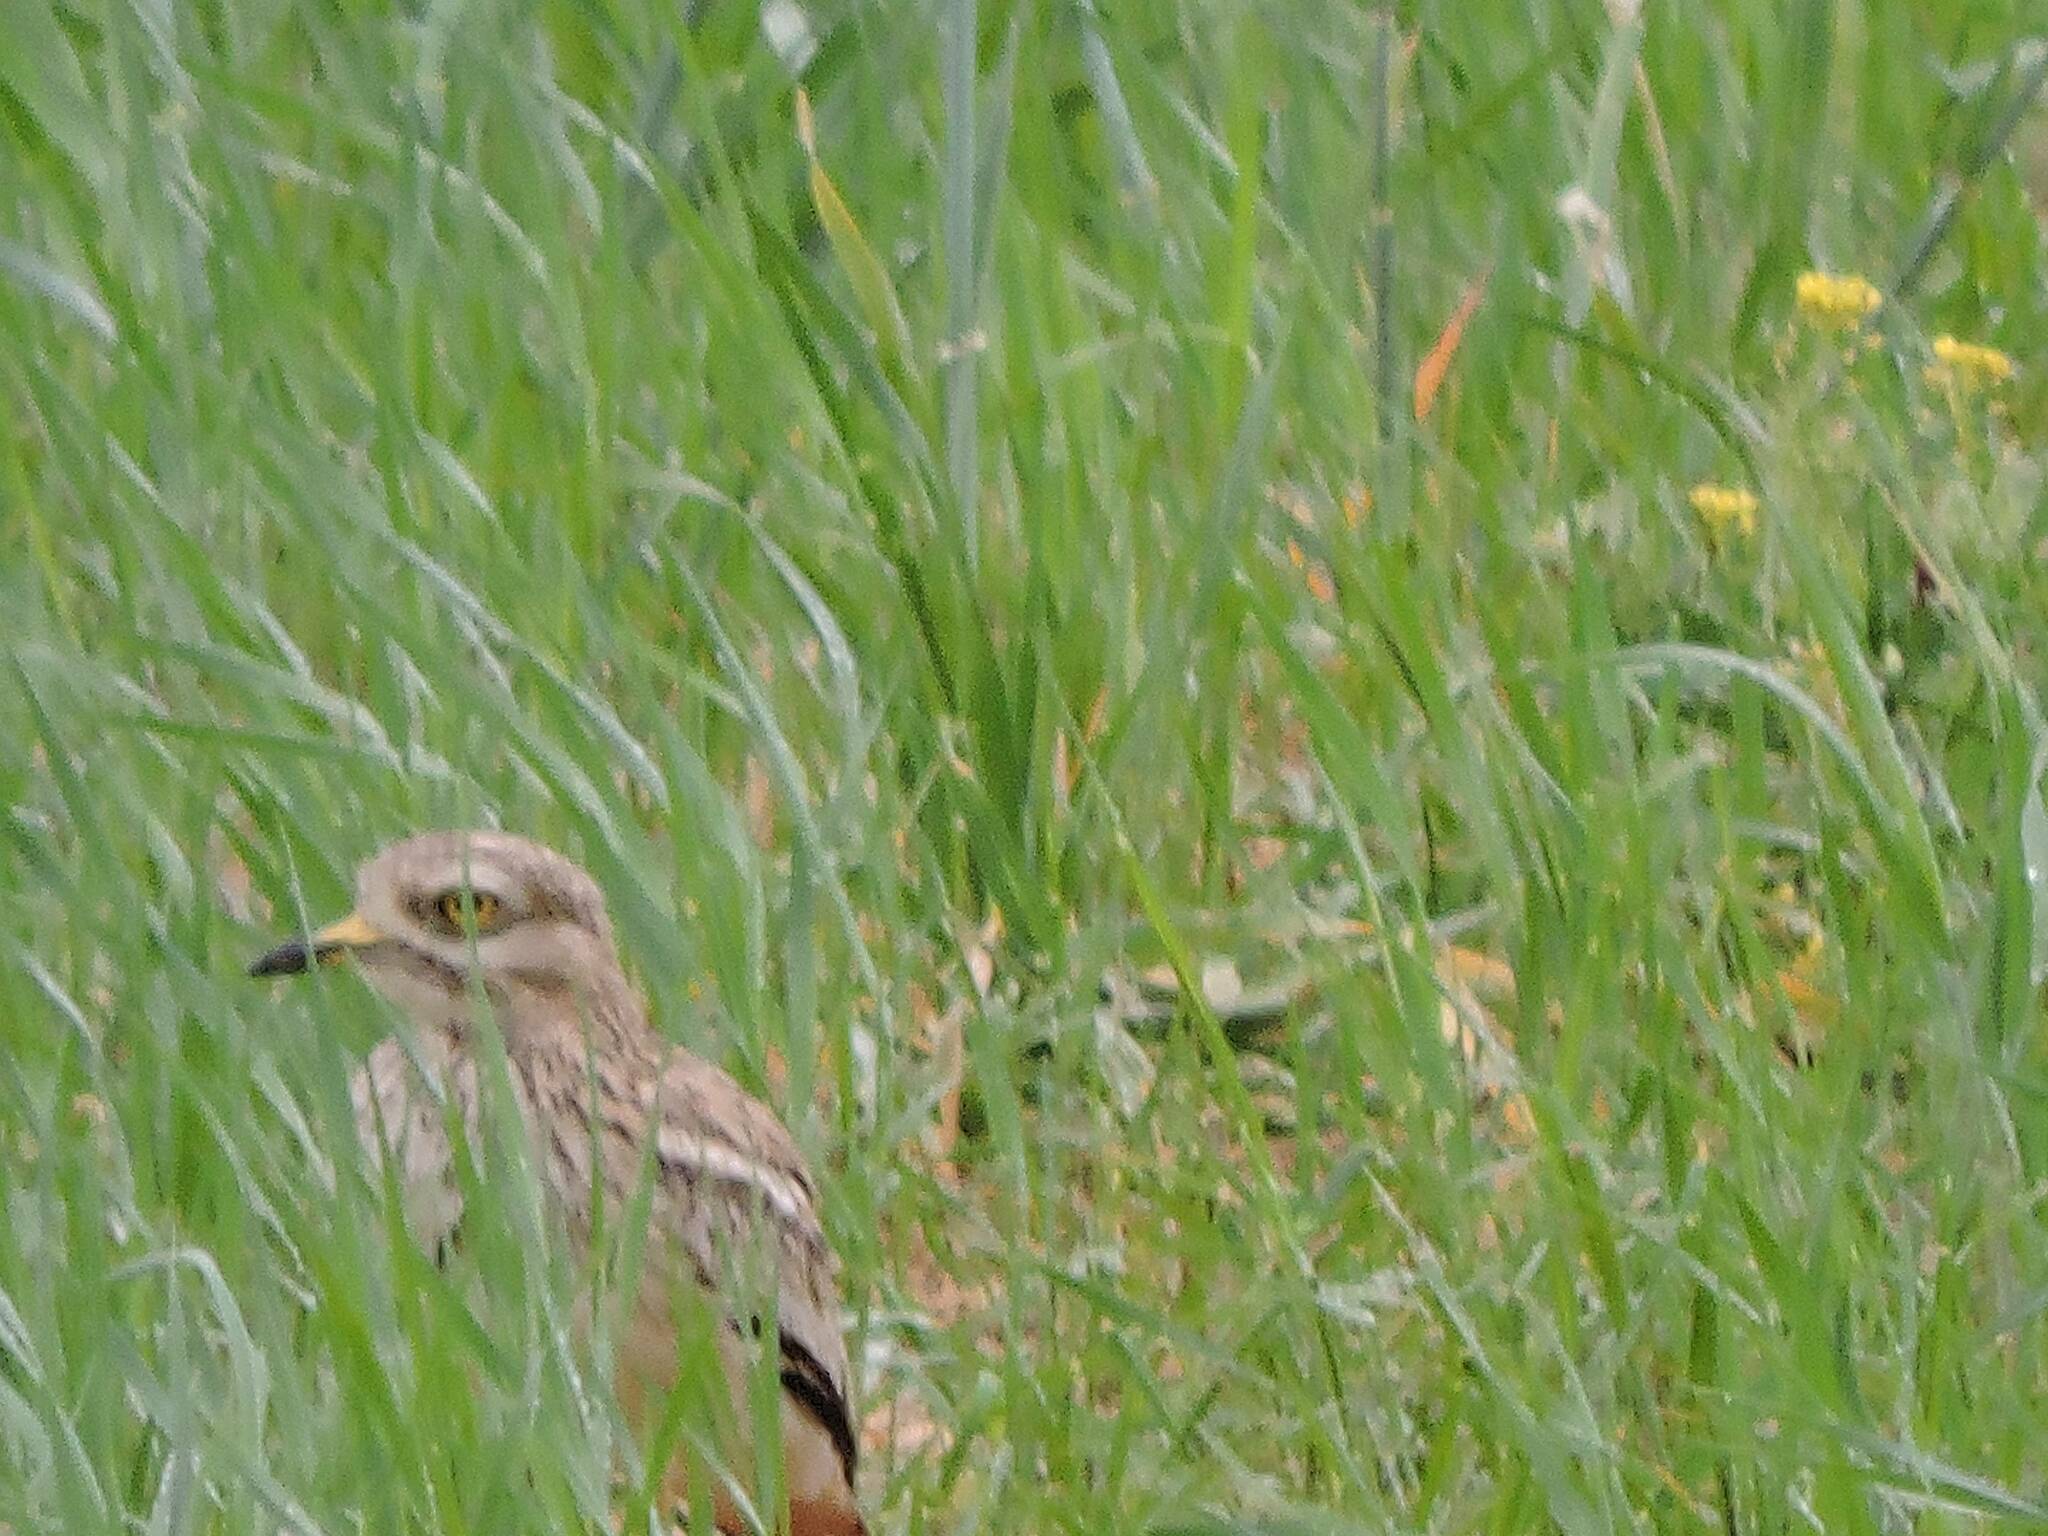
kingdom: Animalia
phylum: Chordata
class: Aves
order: Charadriiformes
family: Burhinidae
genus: Burhinus
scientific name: Burhinus oedicnemus
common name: Eurasian stone-curlew
